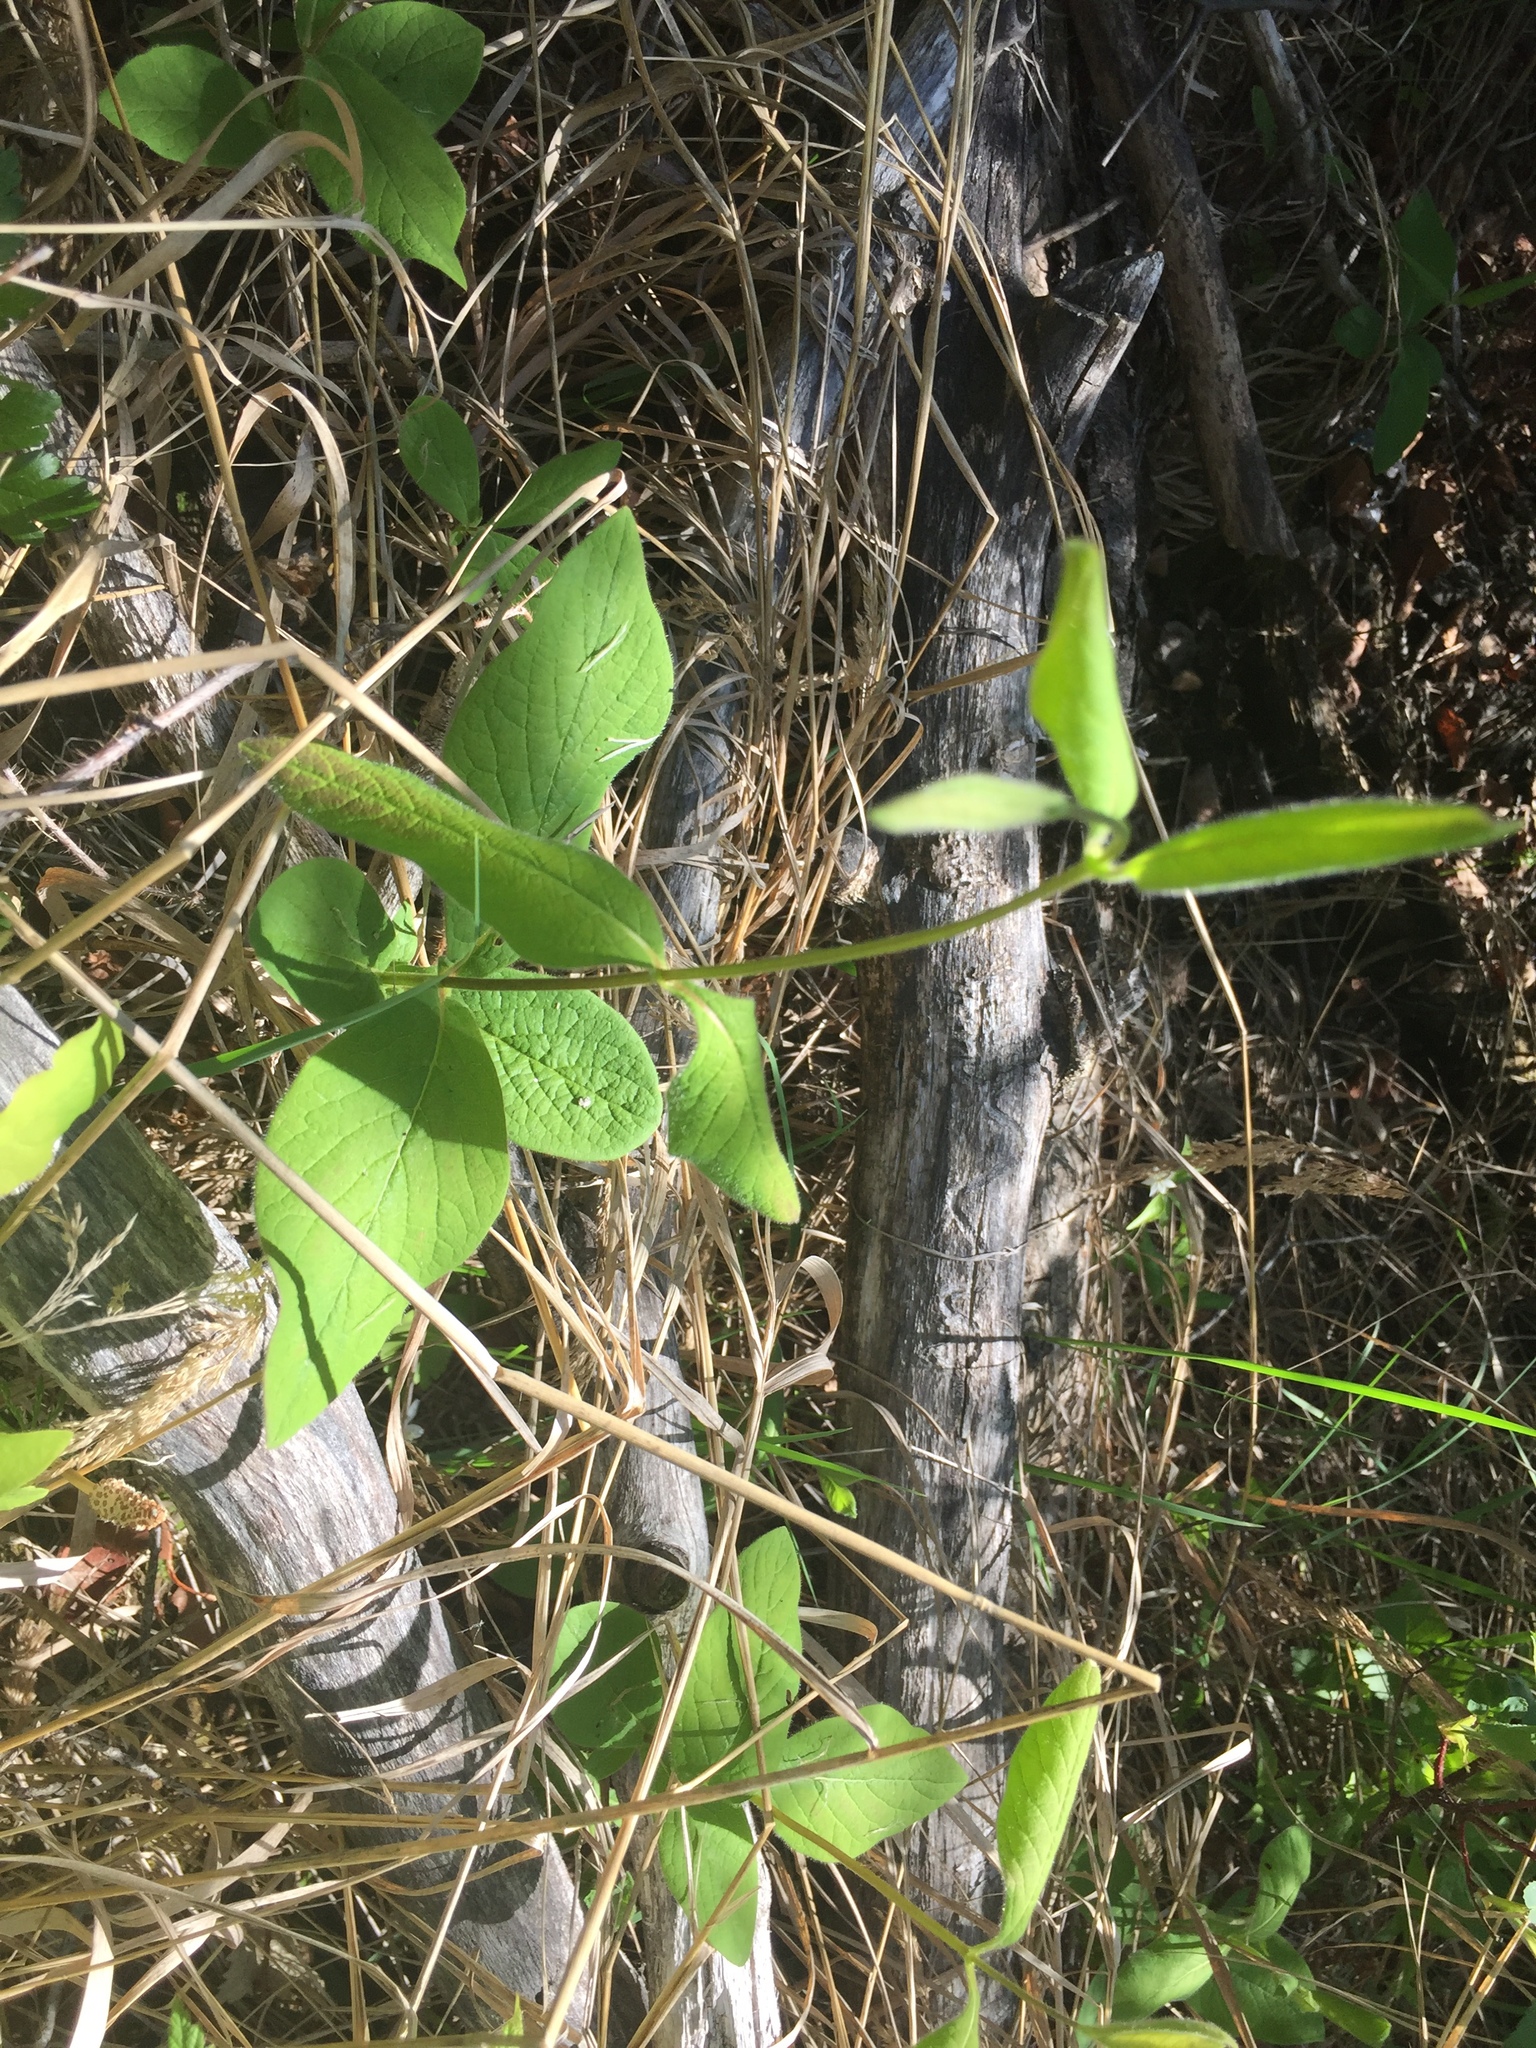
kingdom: Plantae
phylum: Tracheophyta
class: Magnoliopsida
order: Dipsacales
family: Caprifoliaceae
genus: Lonicera
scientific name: Lonicera hirsuta
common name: Hairy honeysuckle
